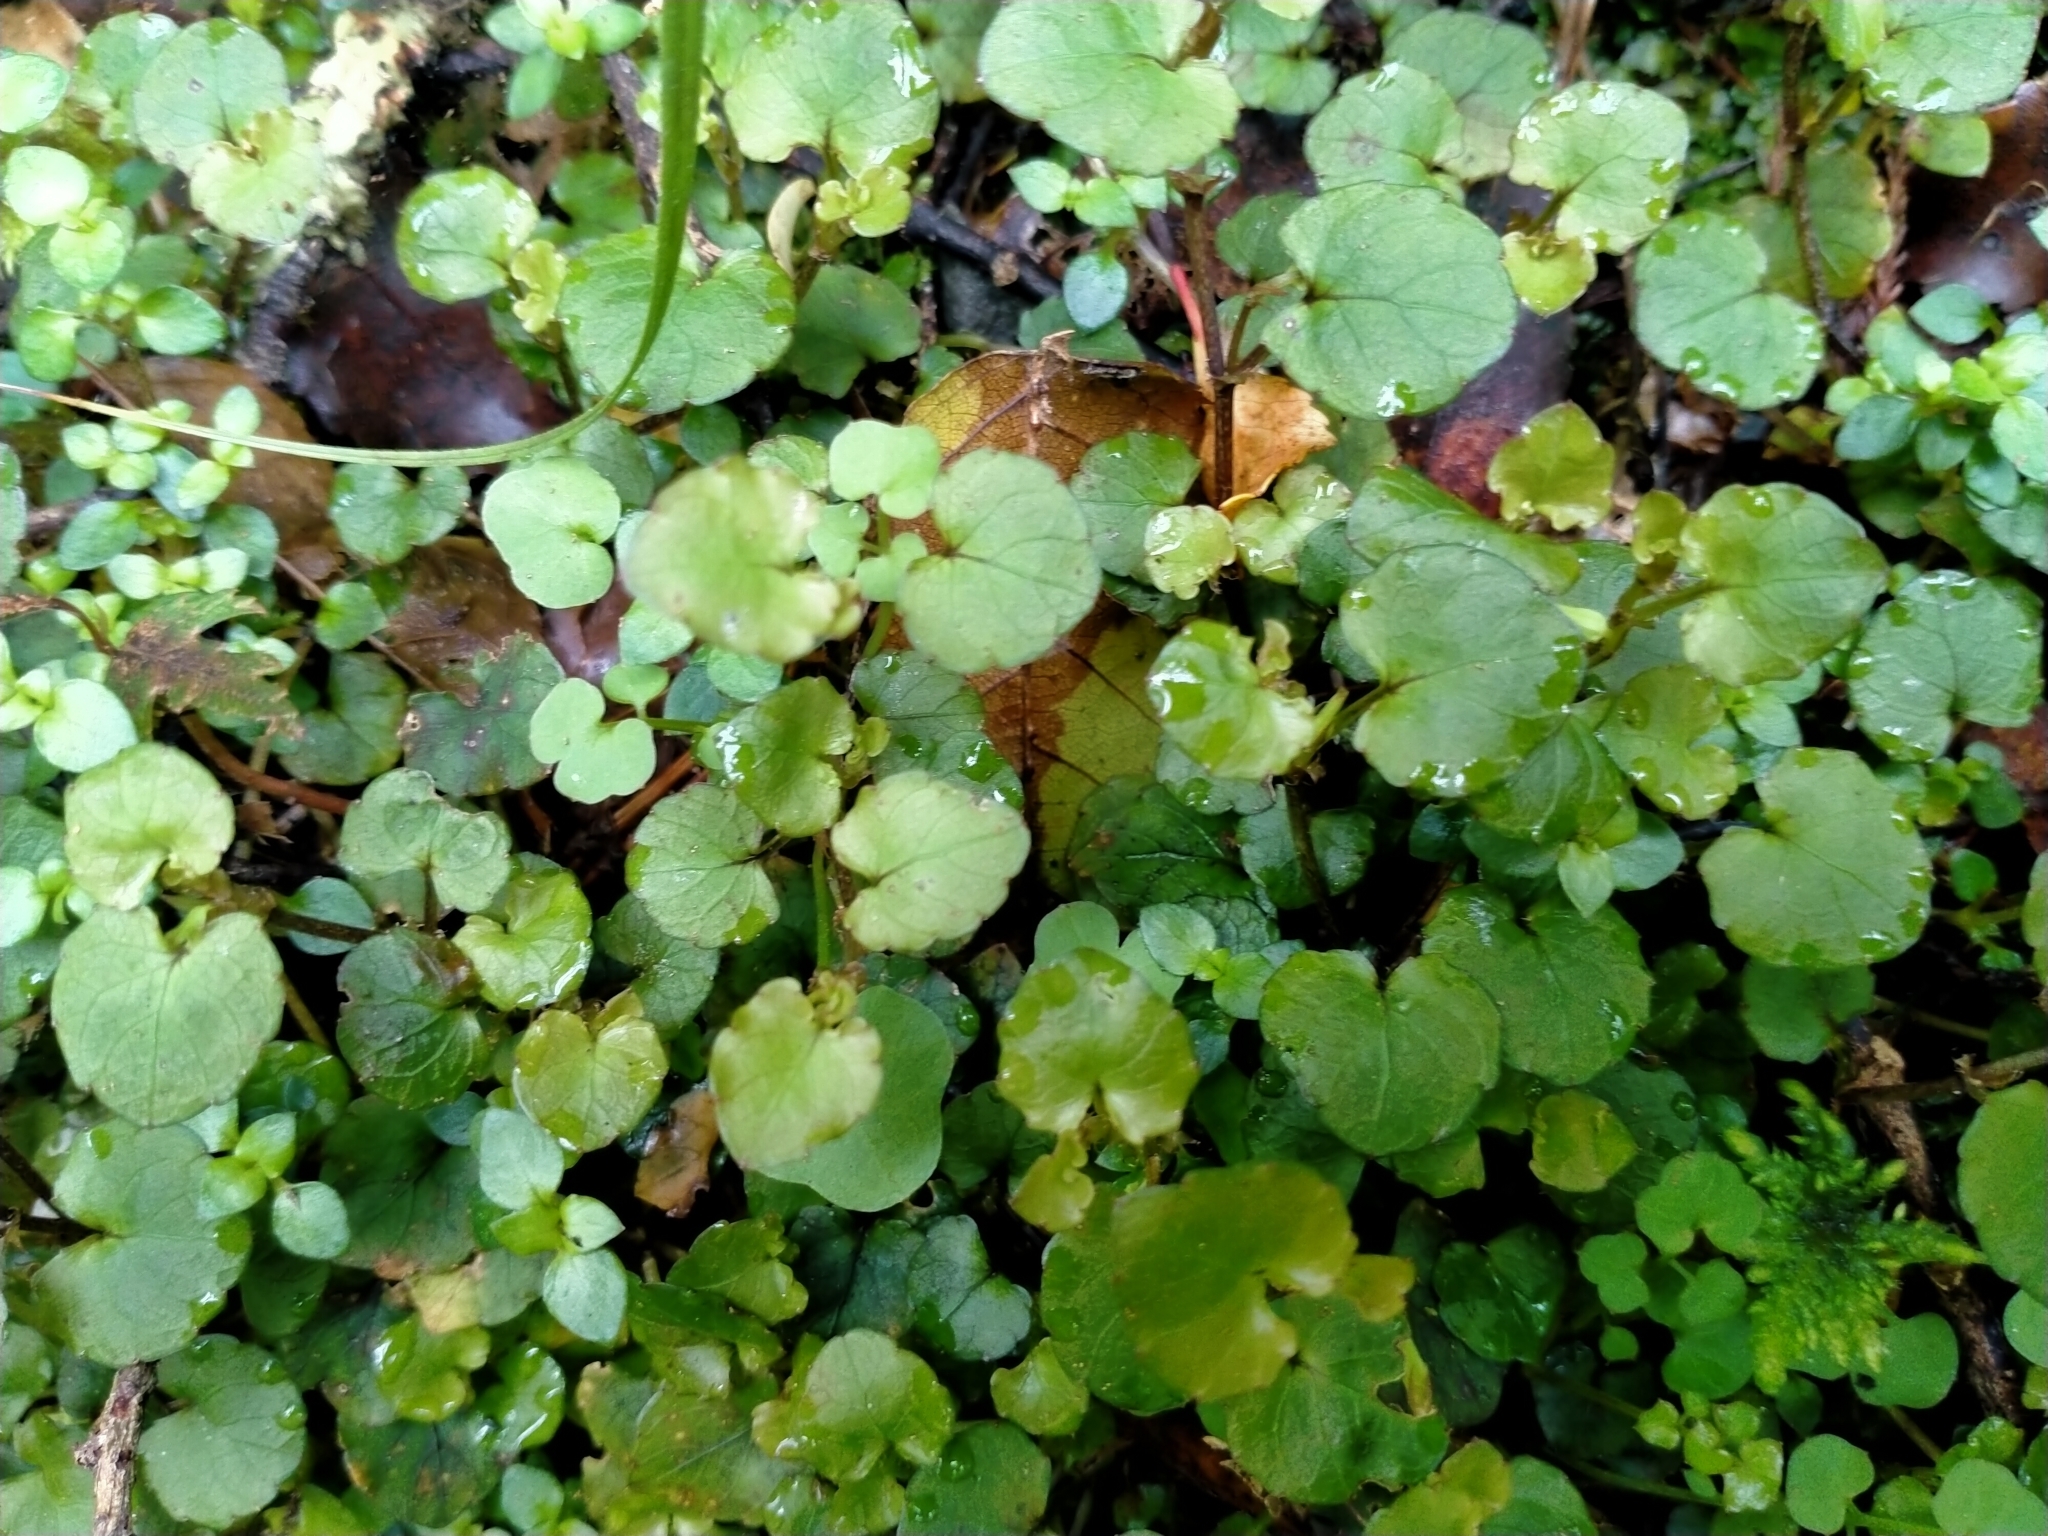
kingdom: Plantae
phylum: Tracheophyta
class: Magnoliopsida
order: Malpighiales
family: Violaceae
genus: Viola
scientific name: Viola filicaulis
